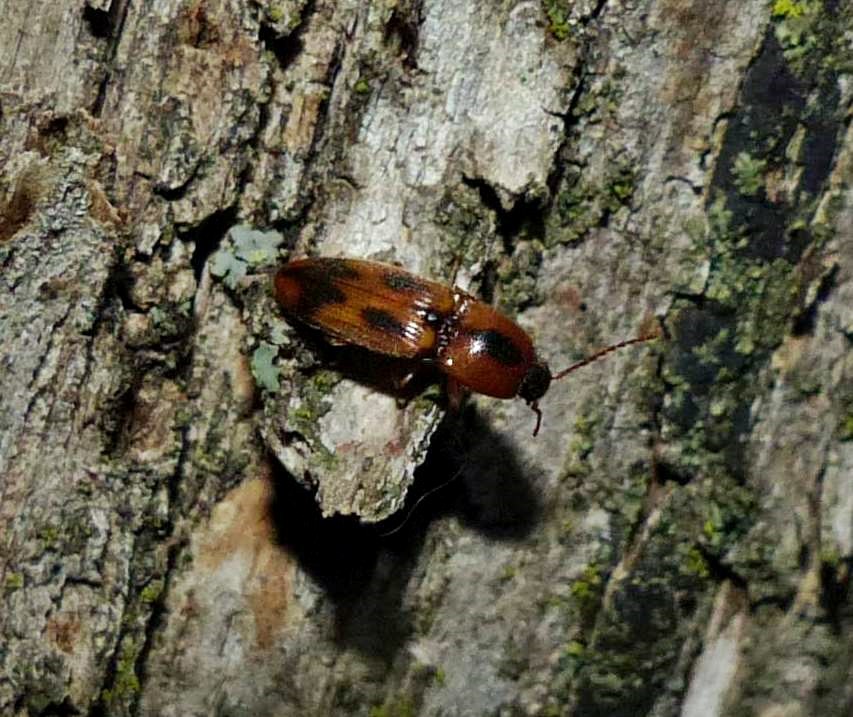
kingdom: Animalia
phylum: Arthropoda
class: Insecta
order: Coleoptera
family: Elateridae
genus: Aeolus
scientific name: Aeolus mellillus
